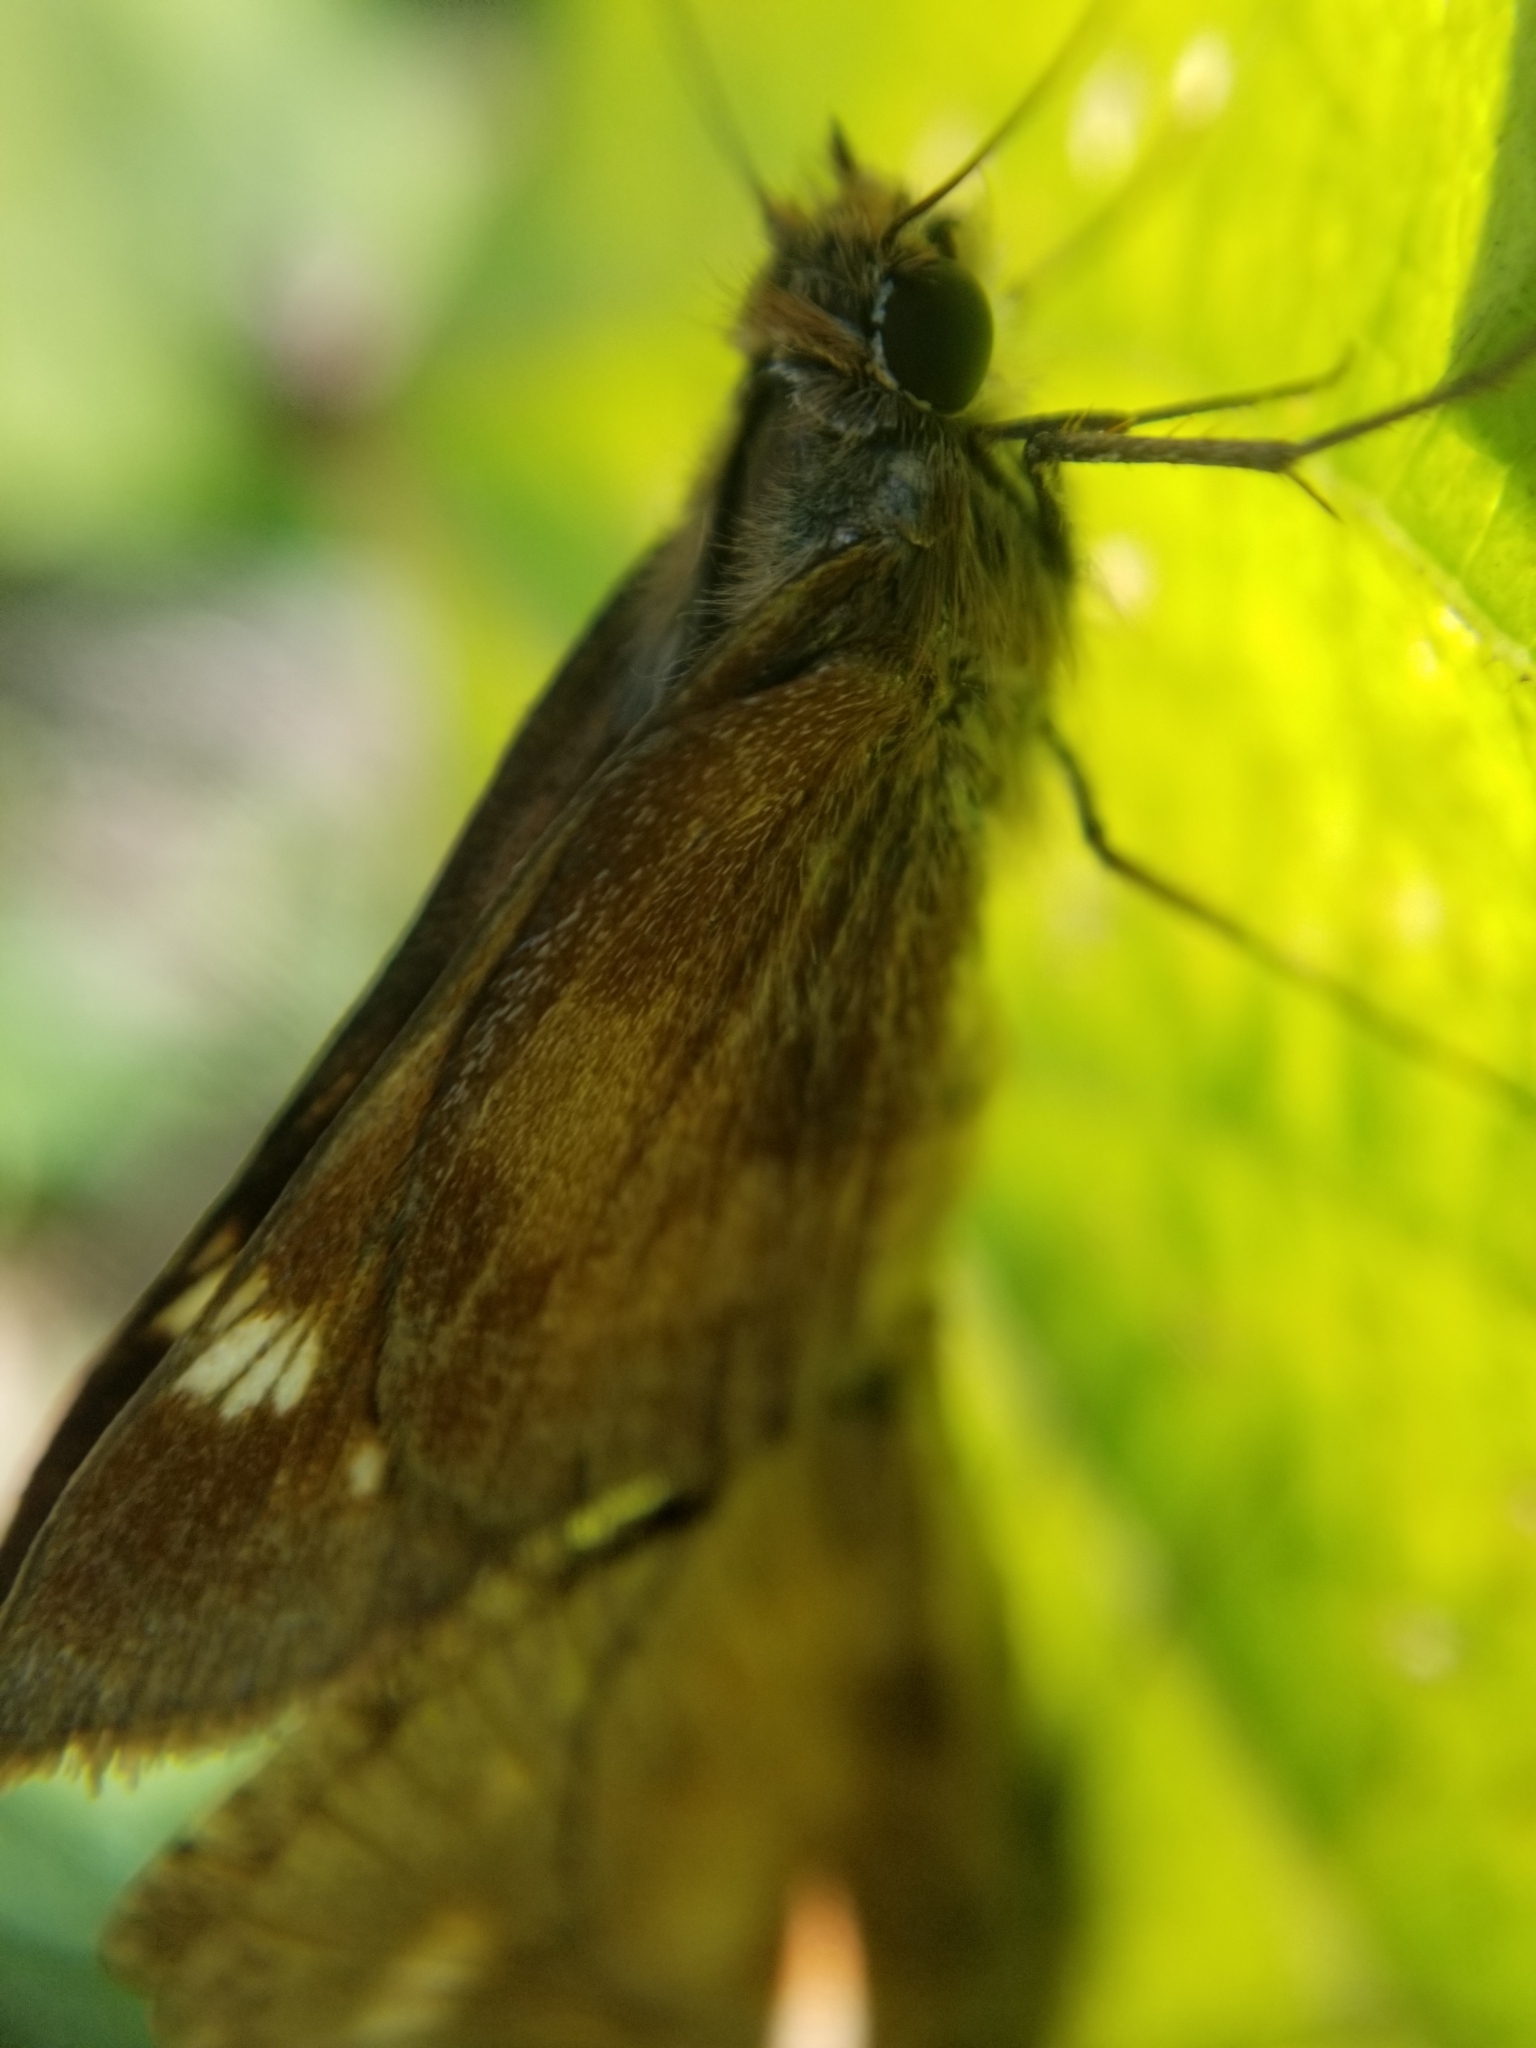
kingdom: Animalia
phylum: Arthropoda
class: Insecta
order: Lepidoptera
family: Hesperiidae
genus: Lon
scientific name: Lon melane
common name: Umber skipper
